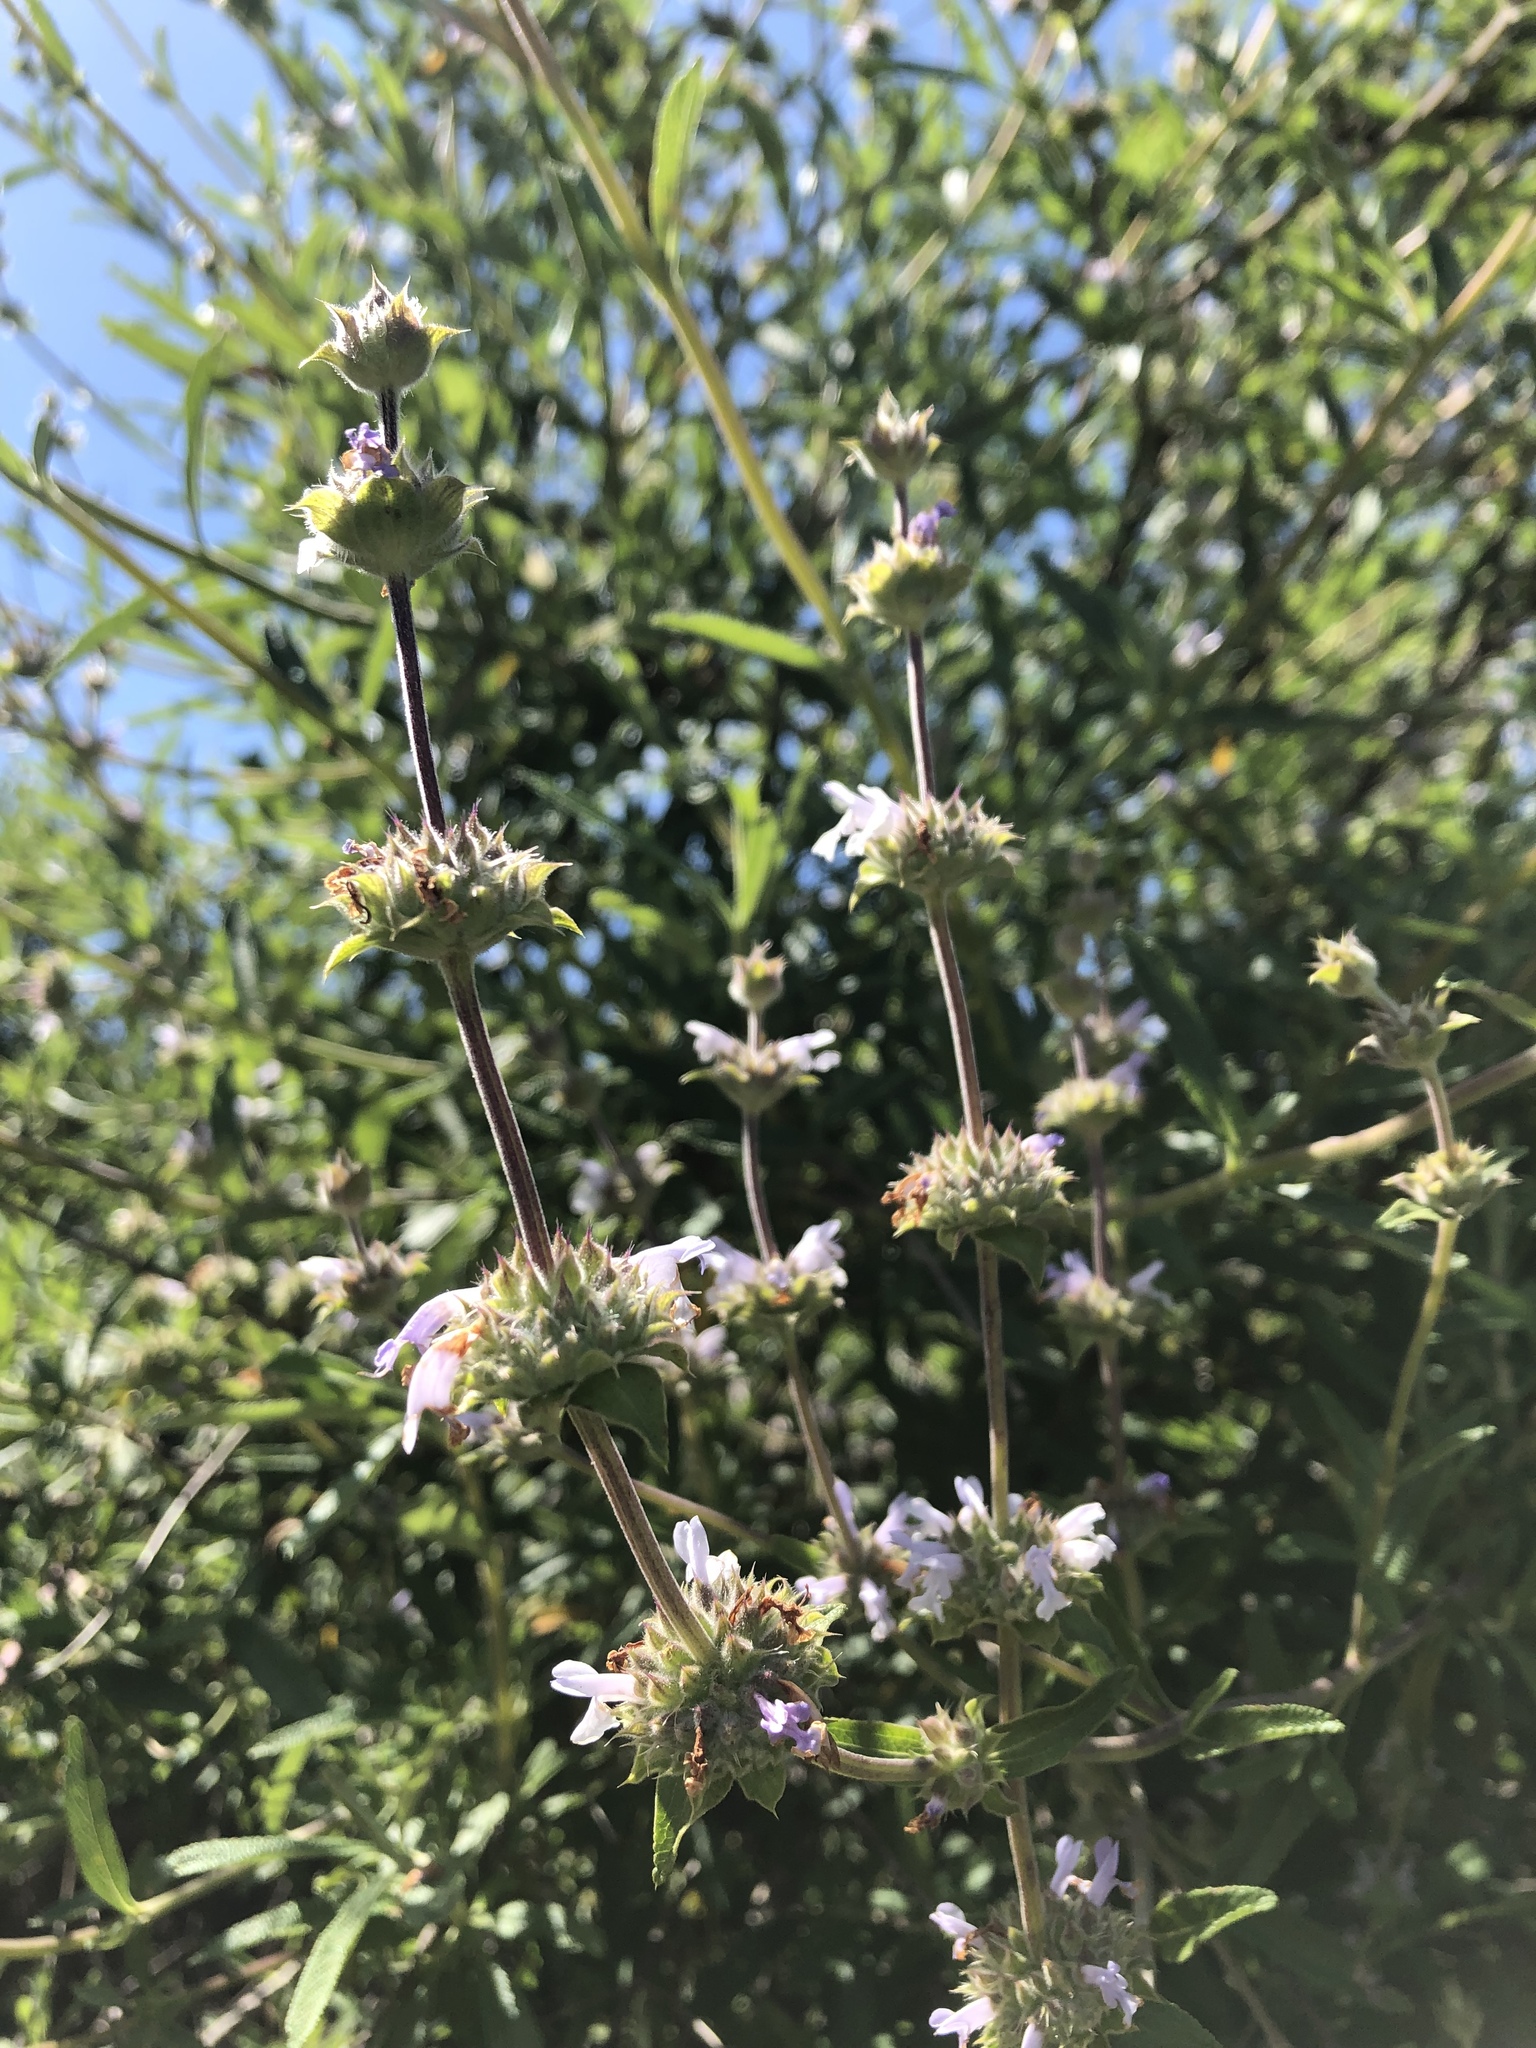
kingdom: Plantae
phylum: Tracheophyta
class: Magnoliopsida
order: Lamiales
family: Lamiaceae
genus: Salvia
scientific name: Salvia mellifera
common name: Black sage
